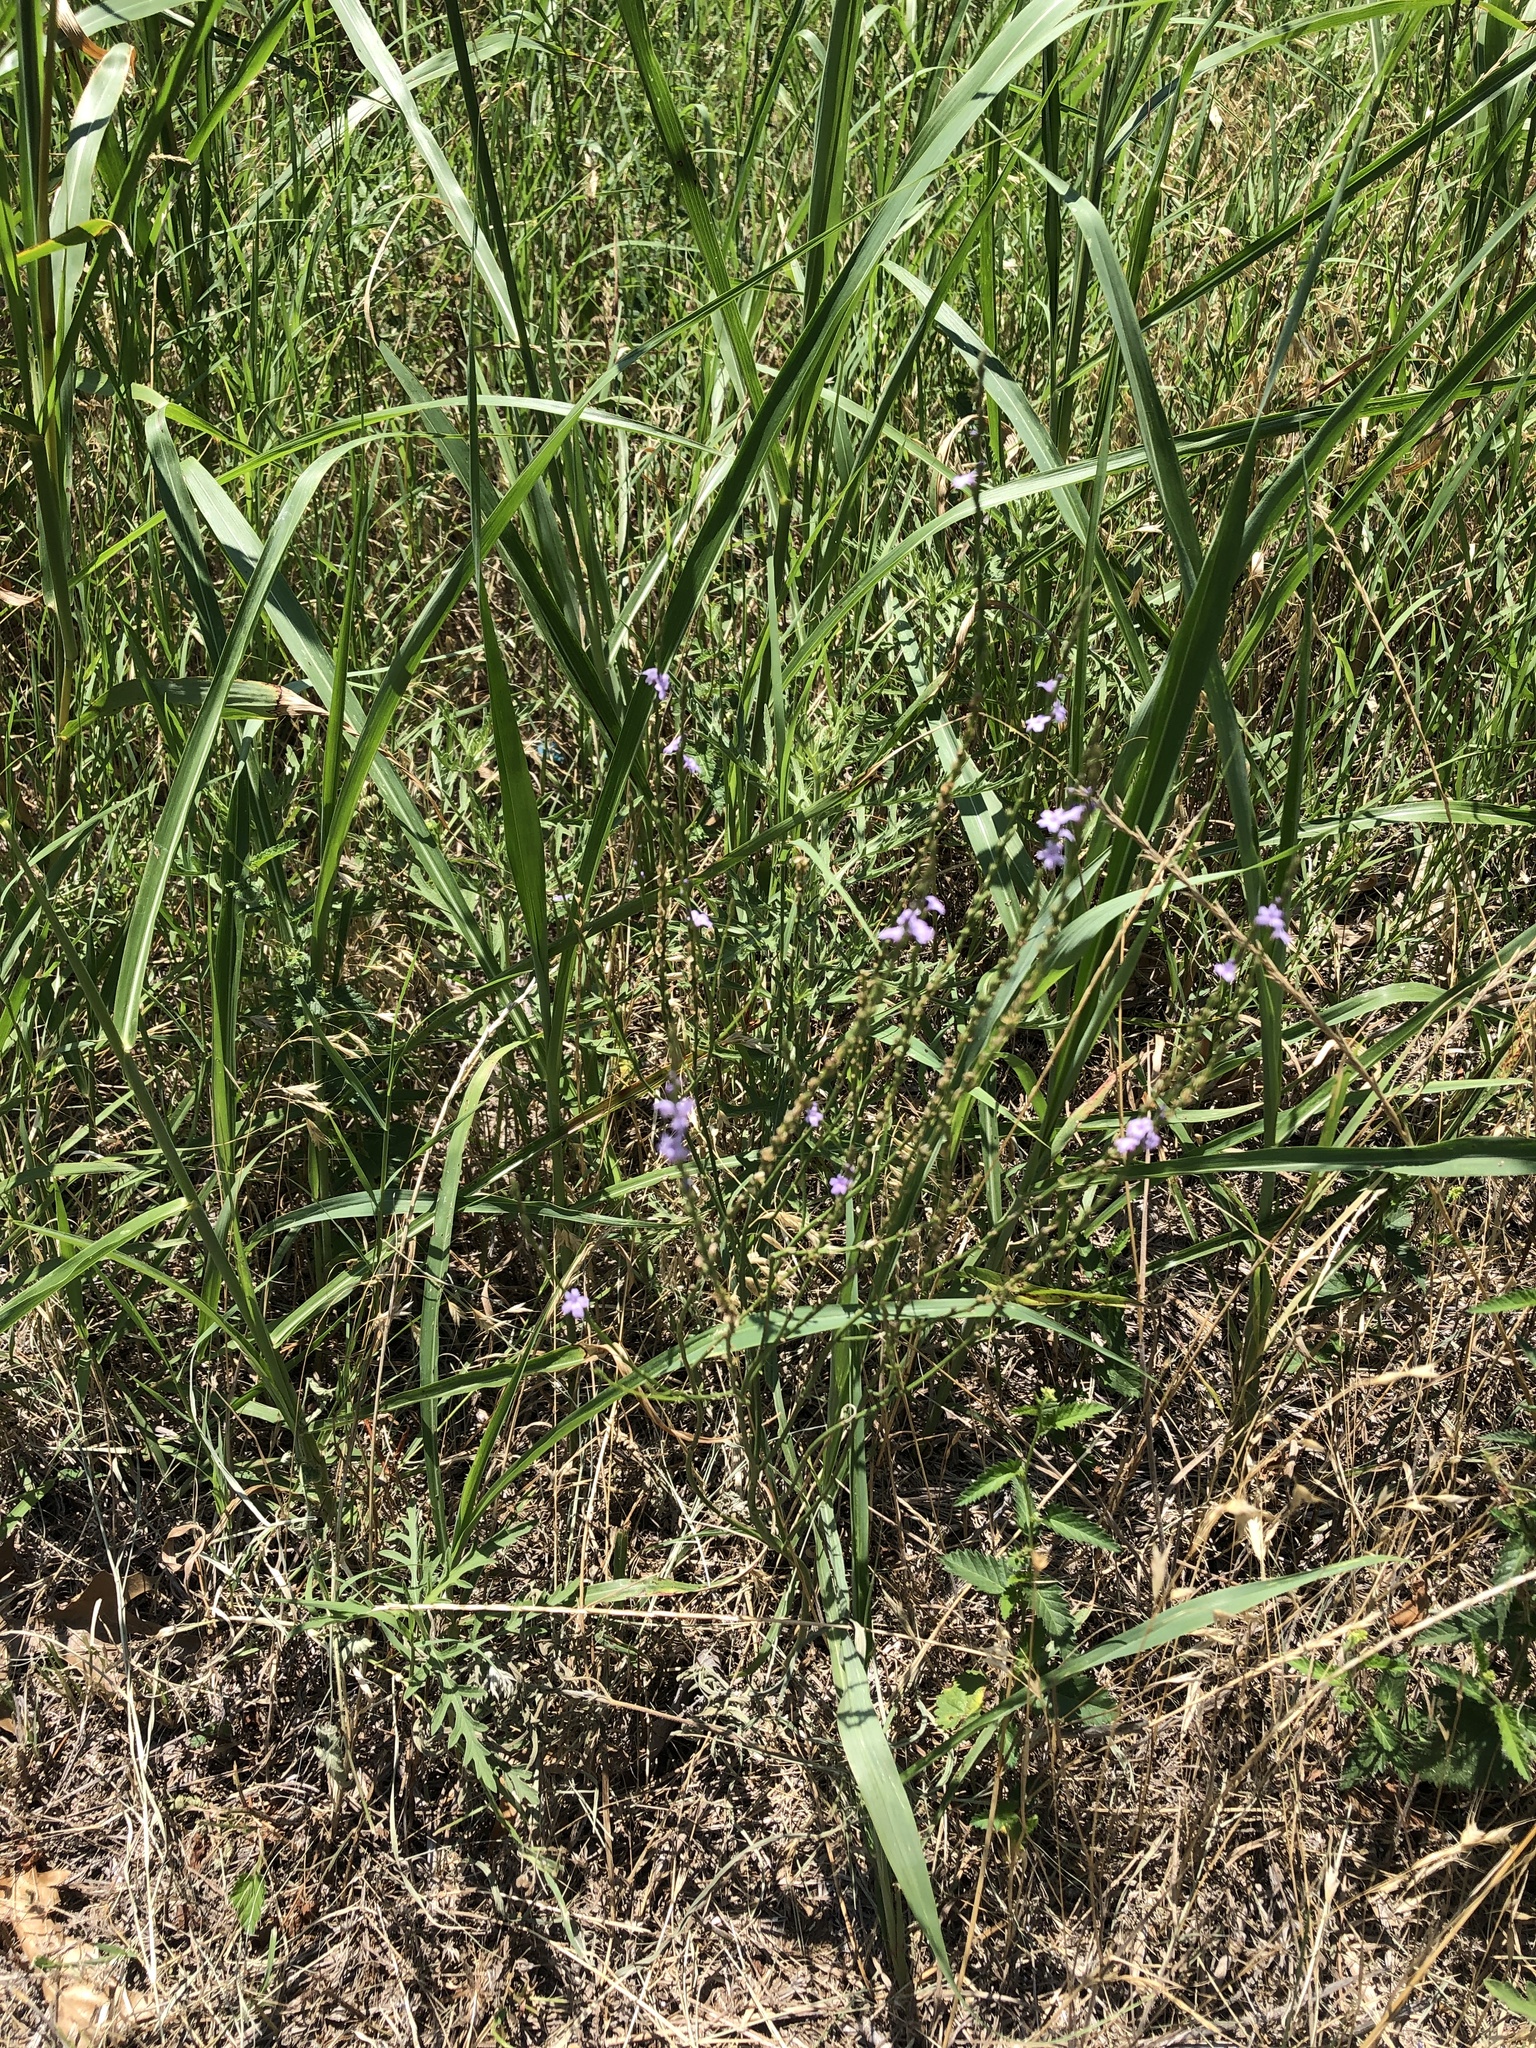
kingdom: Plantae
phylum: Tracheophyta
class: Magnoliopsida
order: Lamiales
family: Verbenaceae
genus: Verbena
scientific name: Verbena halei
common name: Texas vervain
